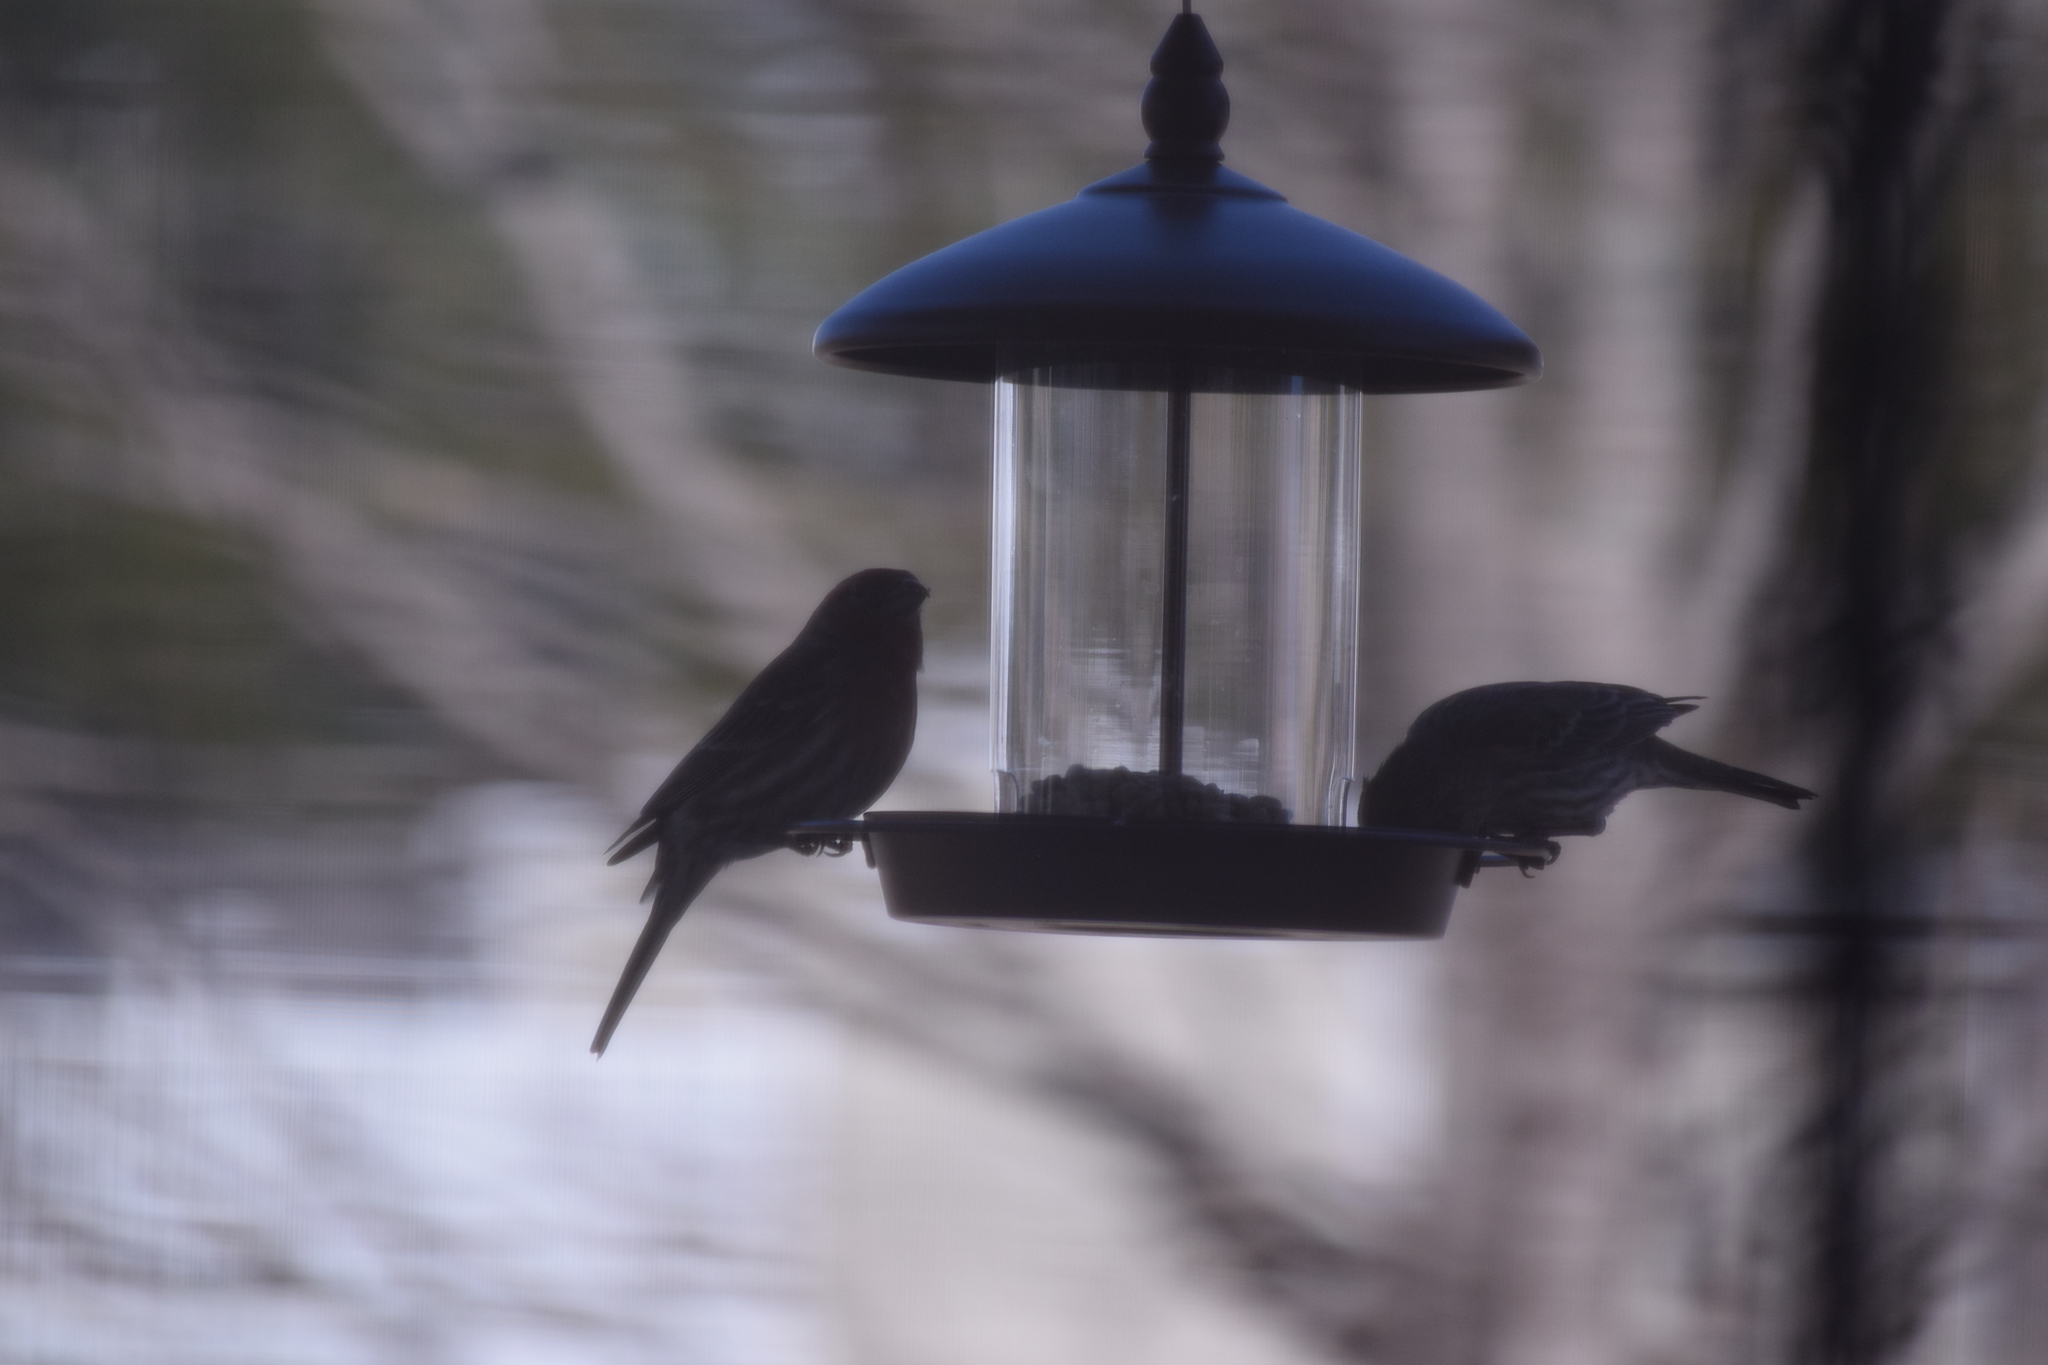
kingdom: Animalia
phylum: Chordata
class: Aves
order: Passeriformes
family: Fringillidae
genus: Haemorhous
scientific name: Haemorhous mexicanus
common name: House finch
